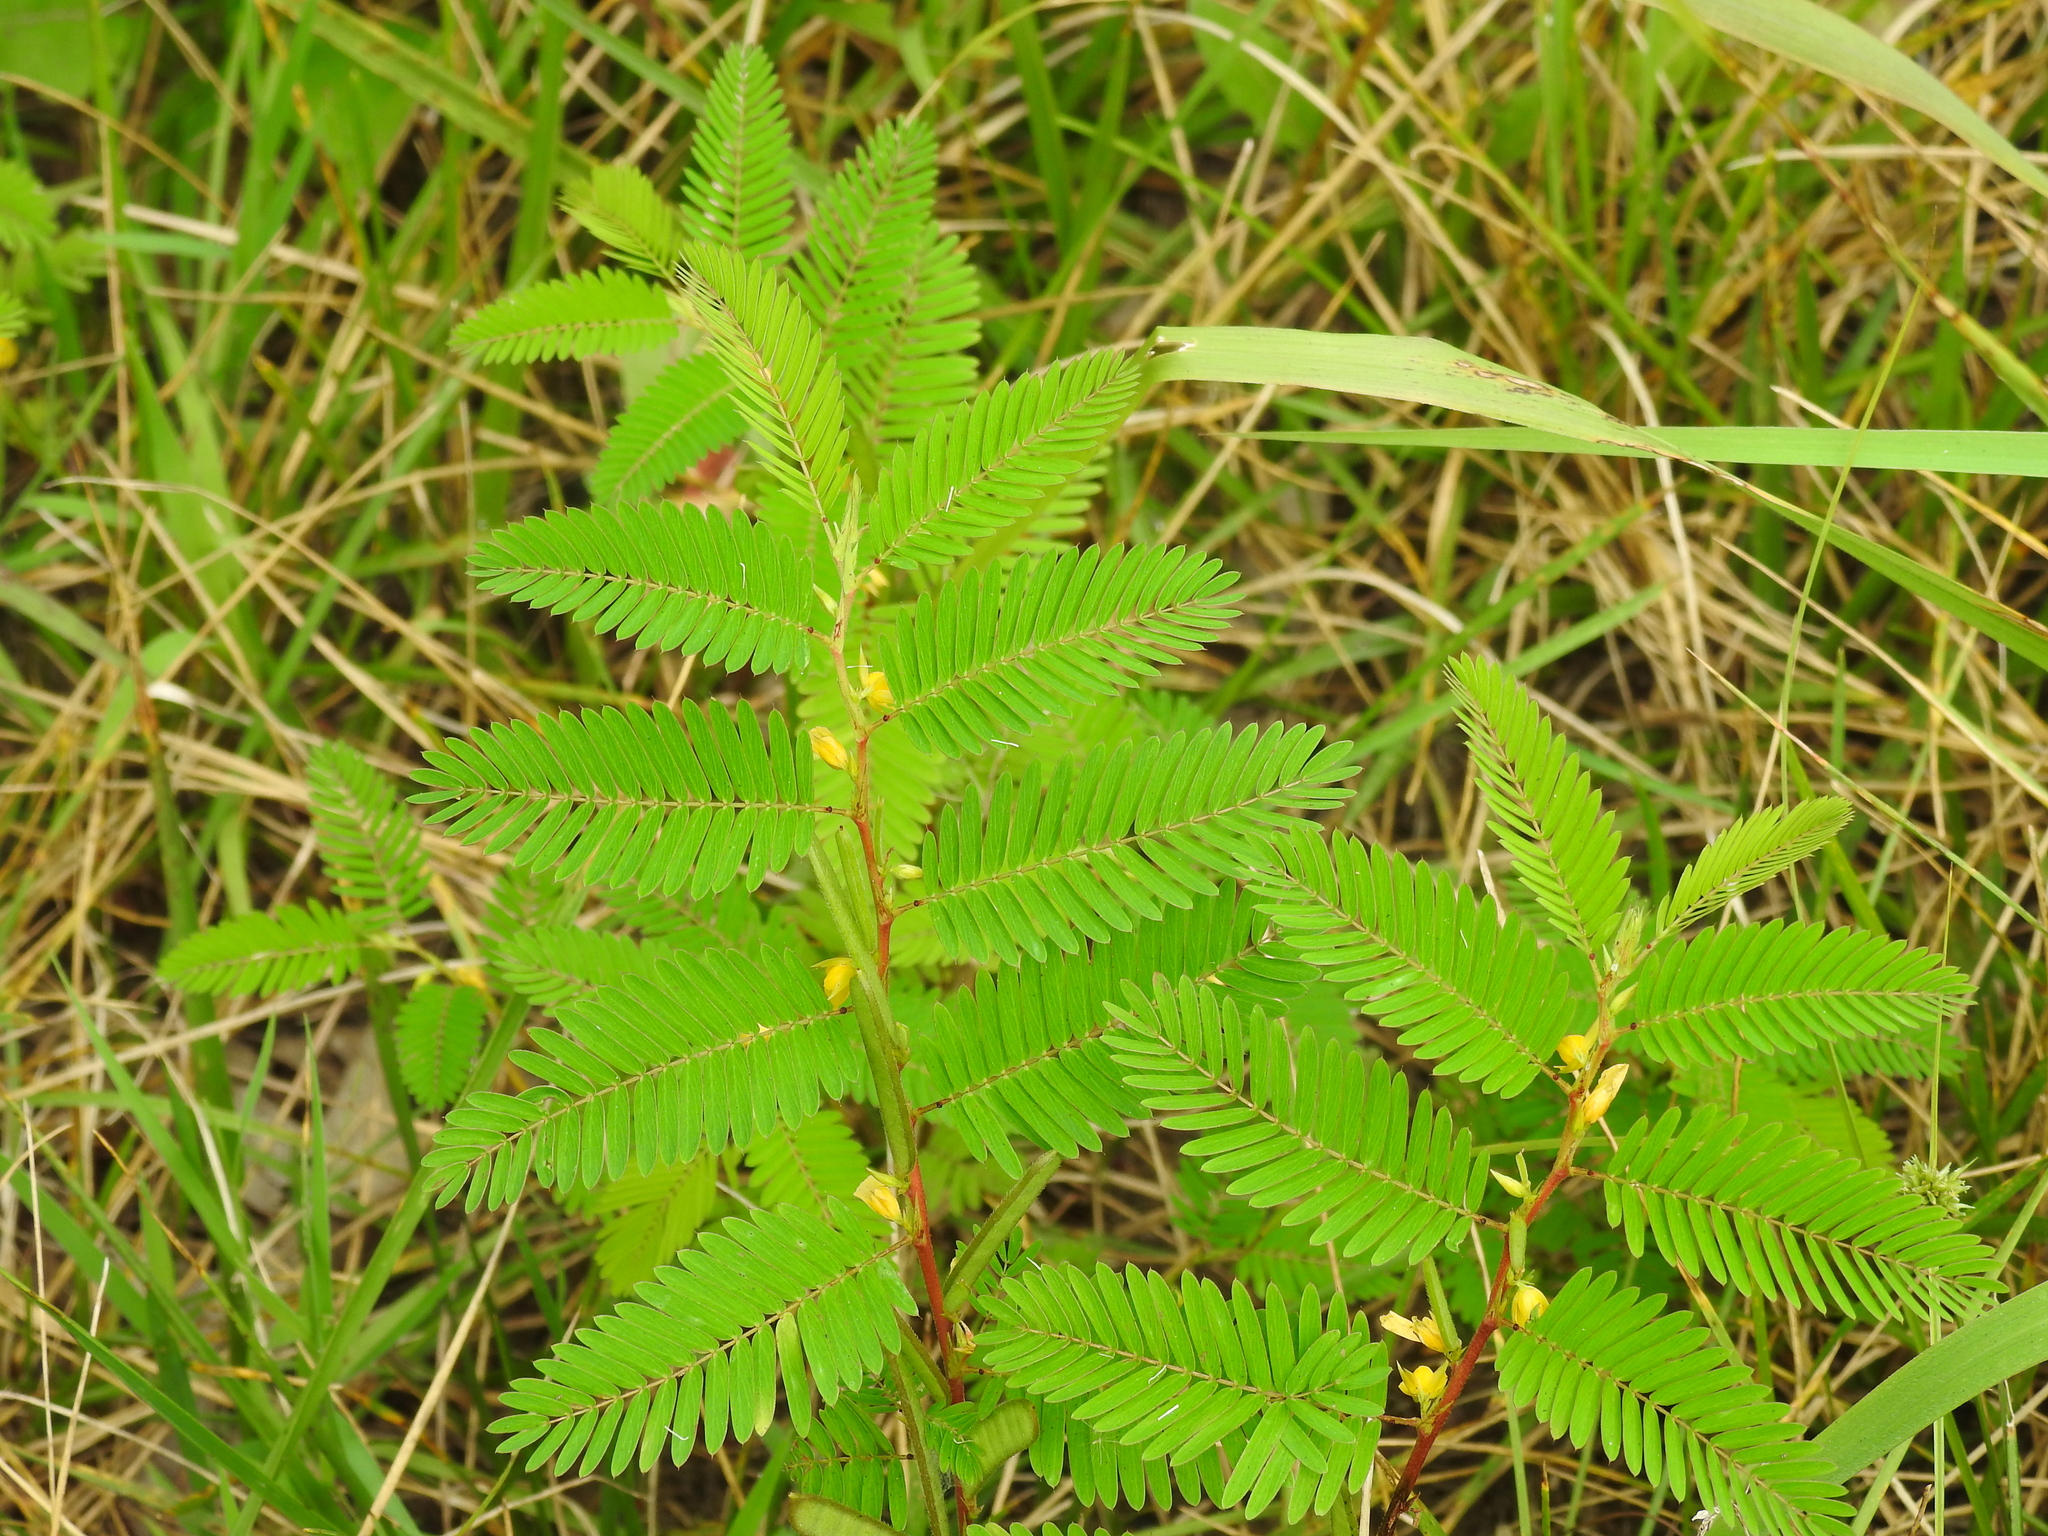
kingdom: Plantae
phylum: Tracheophyta
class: Magnoliopsida
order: Fabales
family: Fabaceae
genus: Chamaecrista
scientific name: Chamaecrista nictitans
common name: Sensitive cassia
